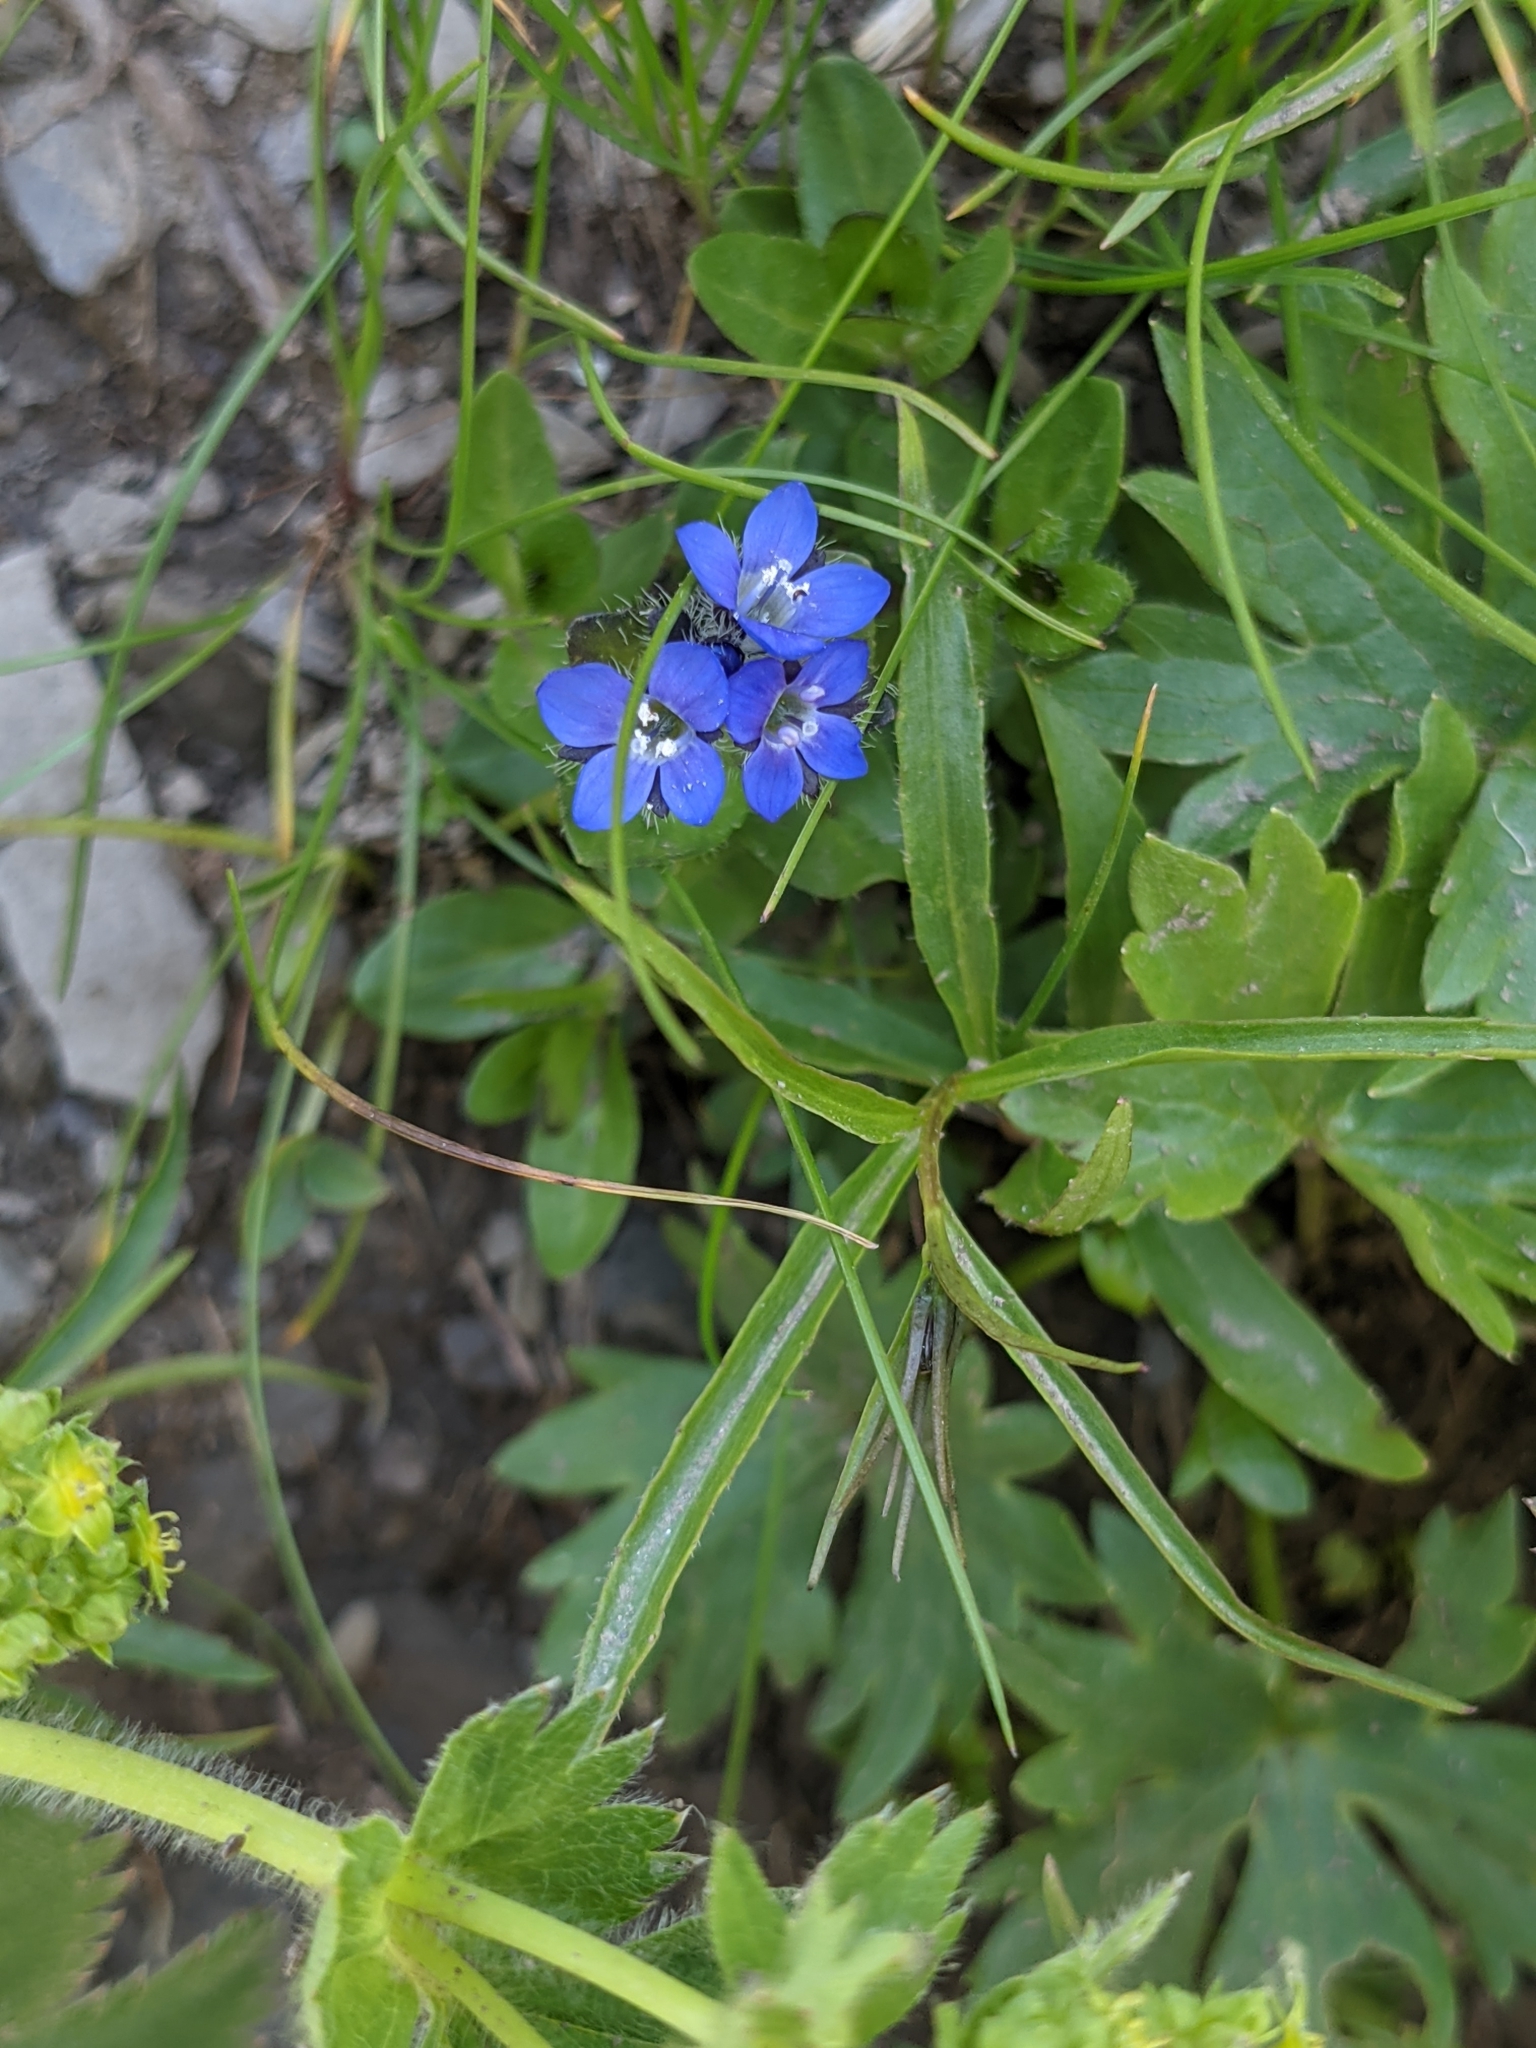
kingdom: Plantae
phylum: Tracheophyta
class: Magnoliopsida
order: Lamiales
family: Plantaginaceae
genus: Veronica
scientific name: Veronica alpina
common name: Alpine speedwell
